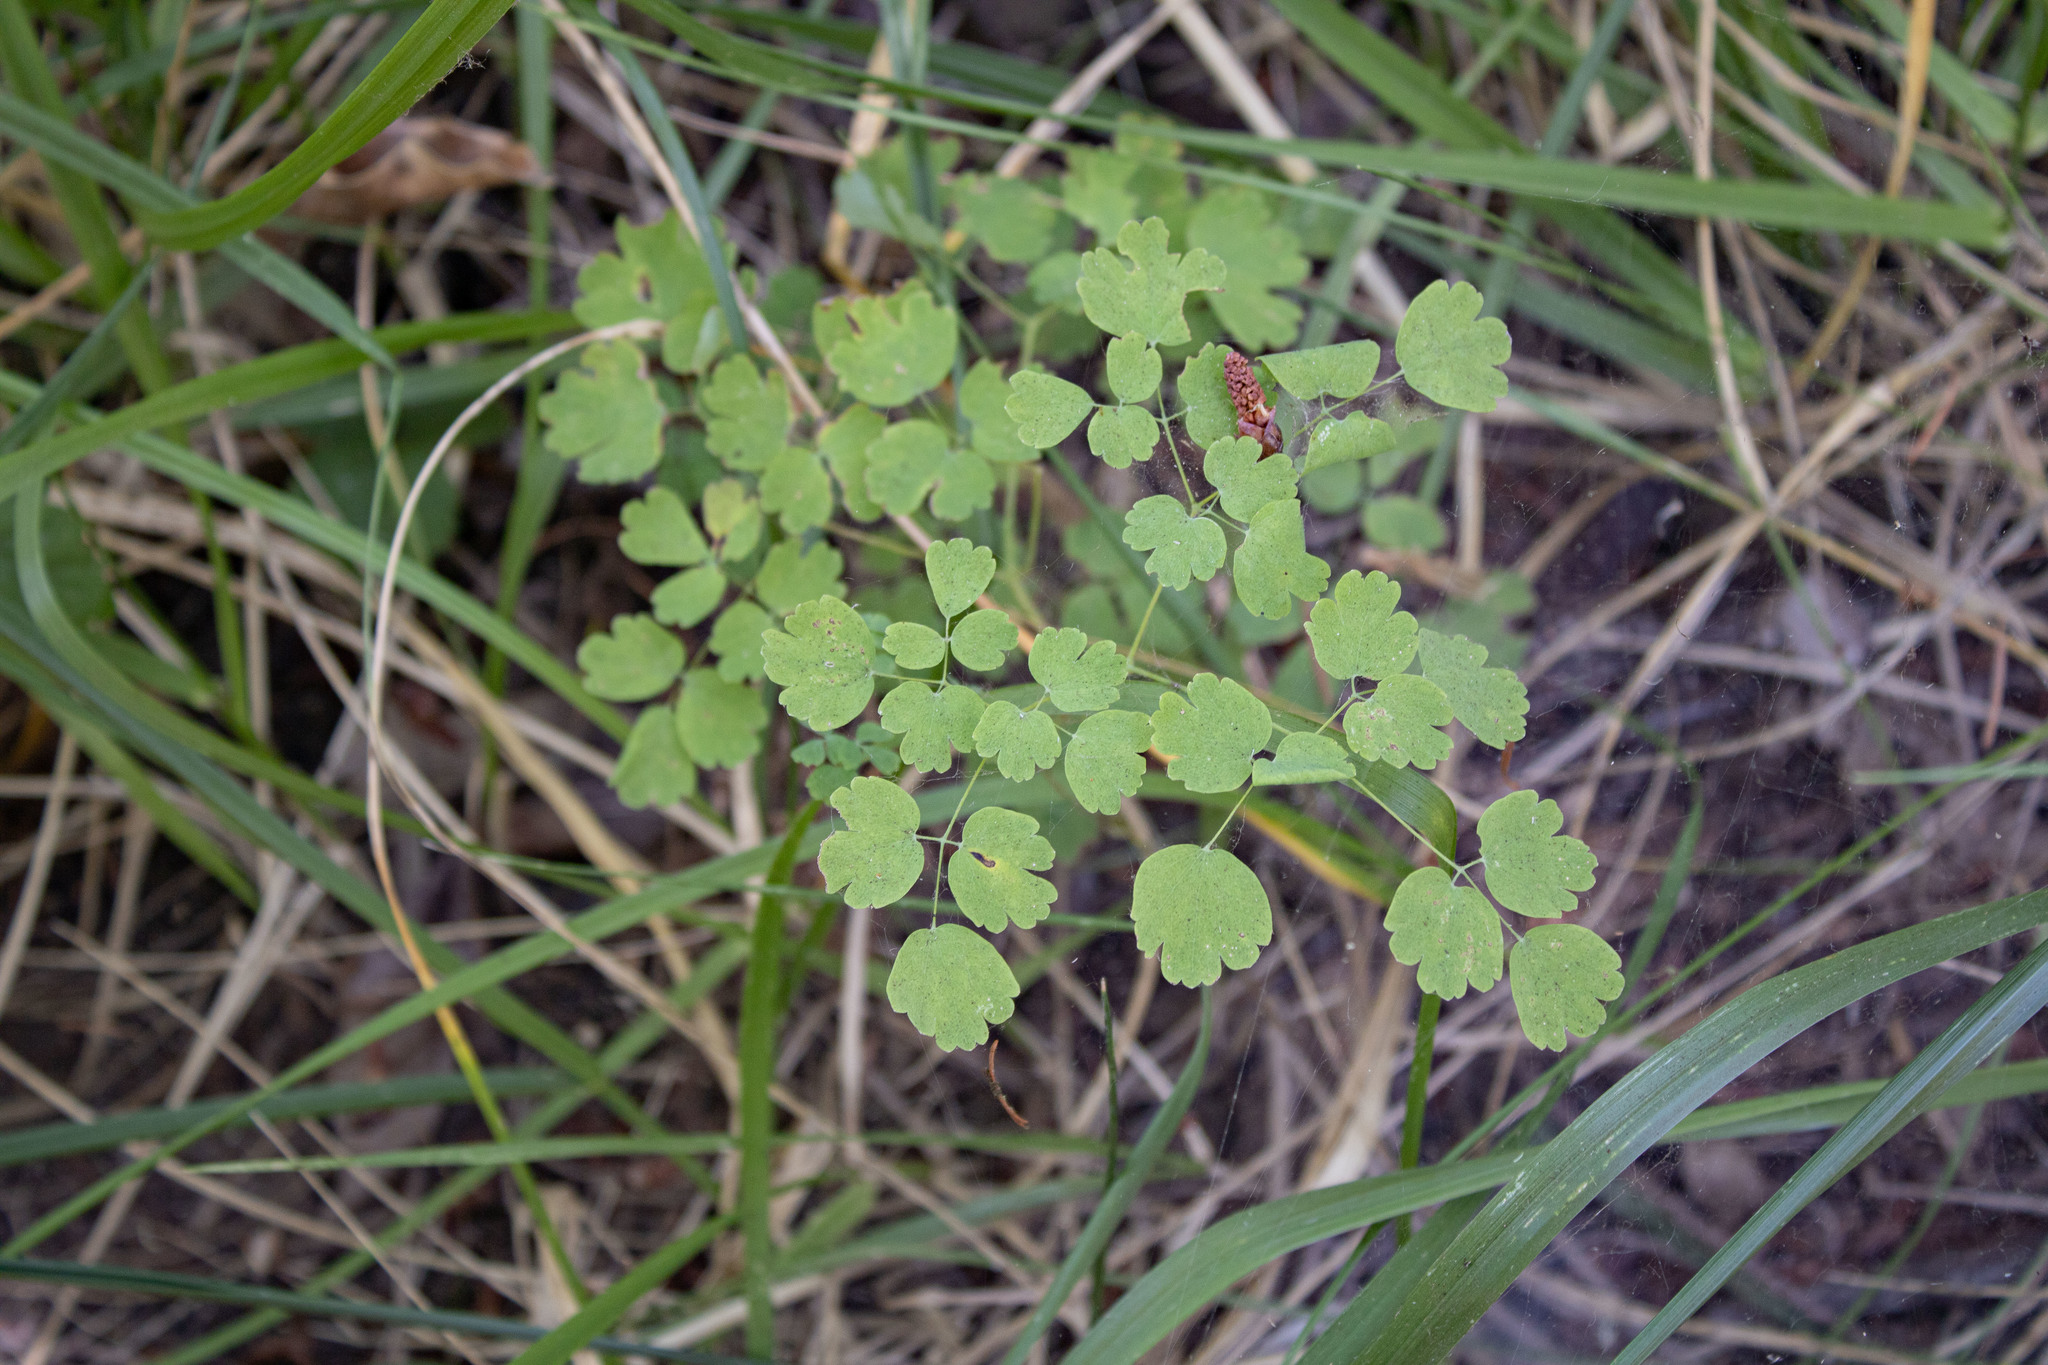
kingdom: Plantae
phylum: Tracheophyta
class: Magnoliopsida
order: Ranunculales
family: Ranunculaceae
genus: Thalictrum
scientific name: Thalictrum occidentale
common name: Western meadow-rue
